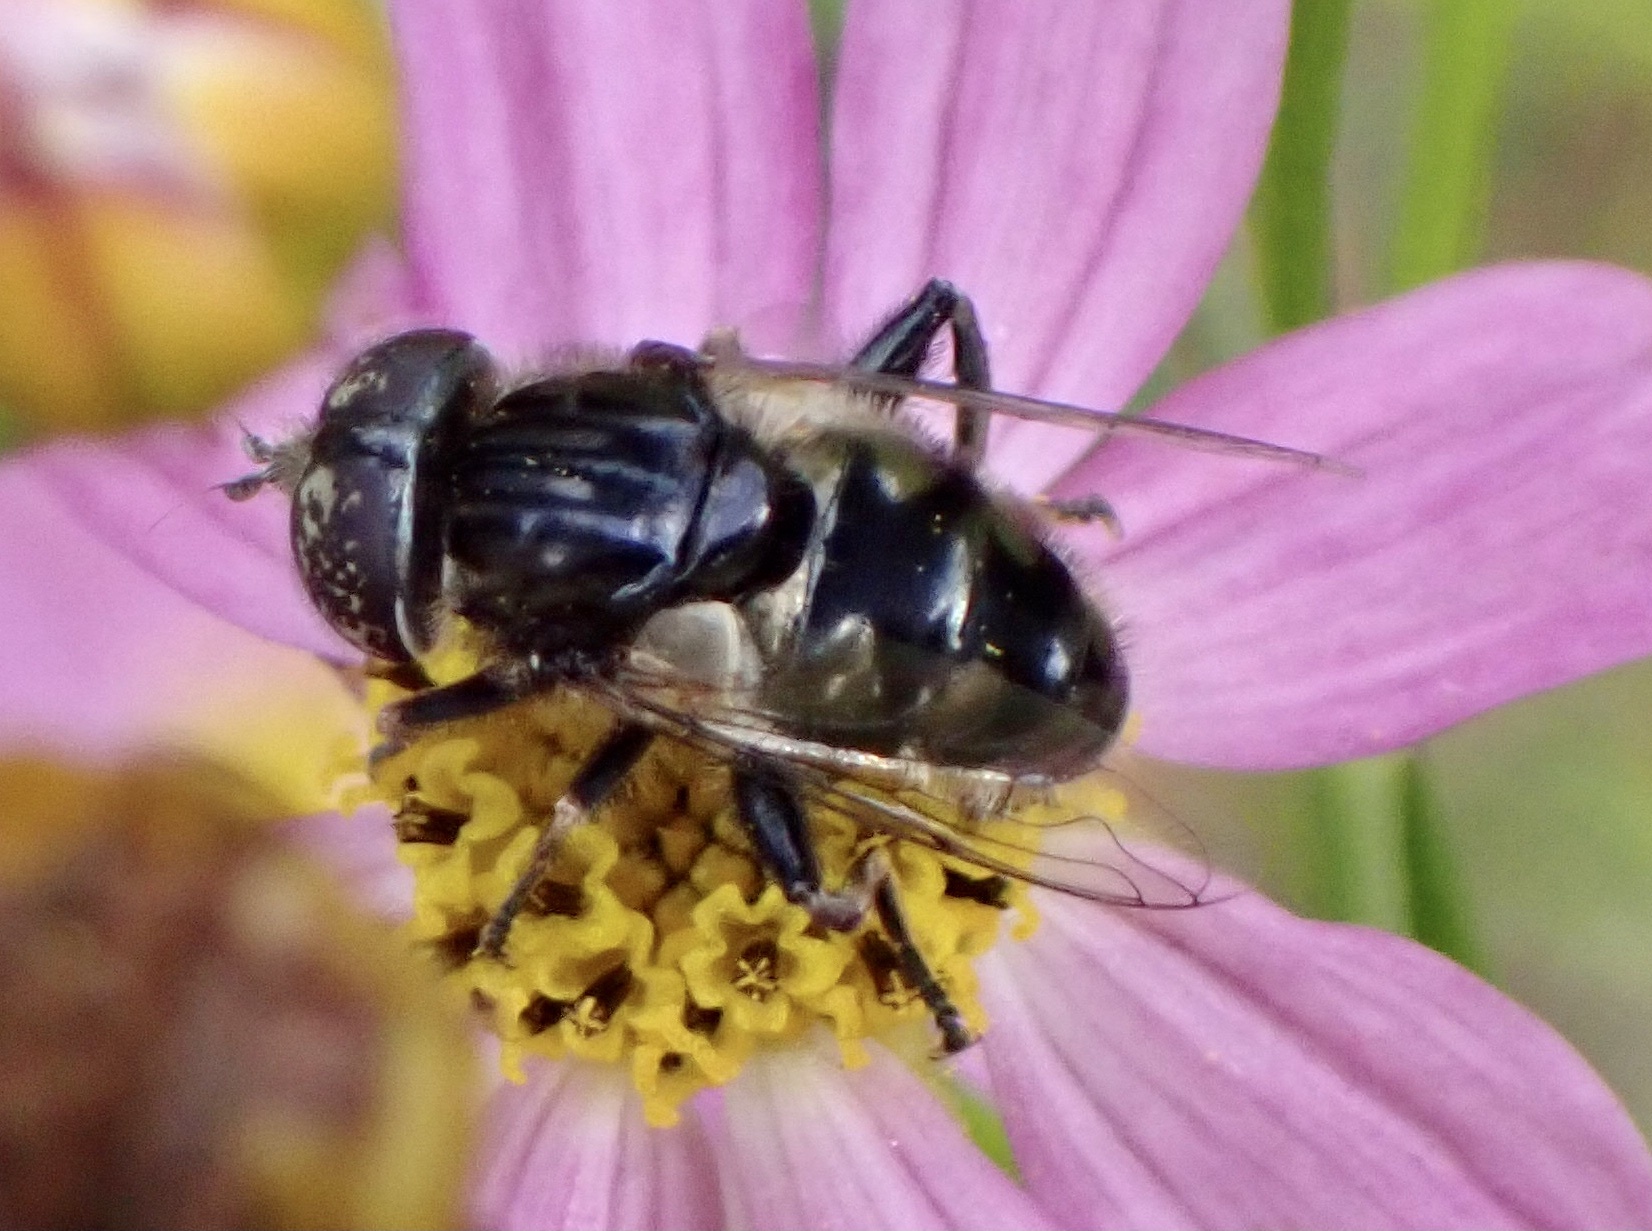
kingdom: Animalia
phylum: Arthropoda
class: Insecta
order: Diptera
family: Syrphidae
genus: Eristalinus
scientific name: Eristalinus sepulchralis
